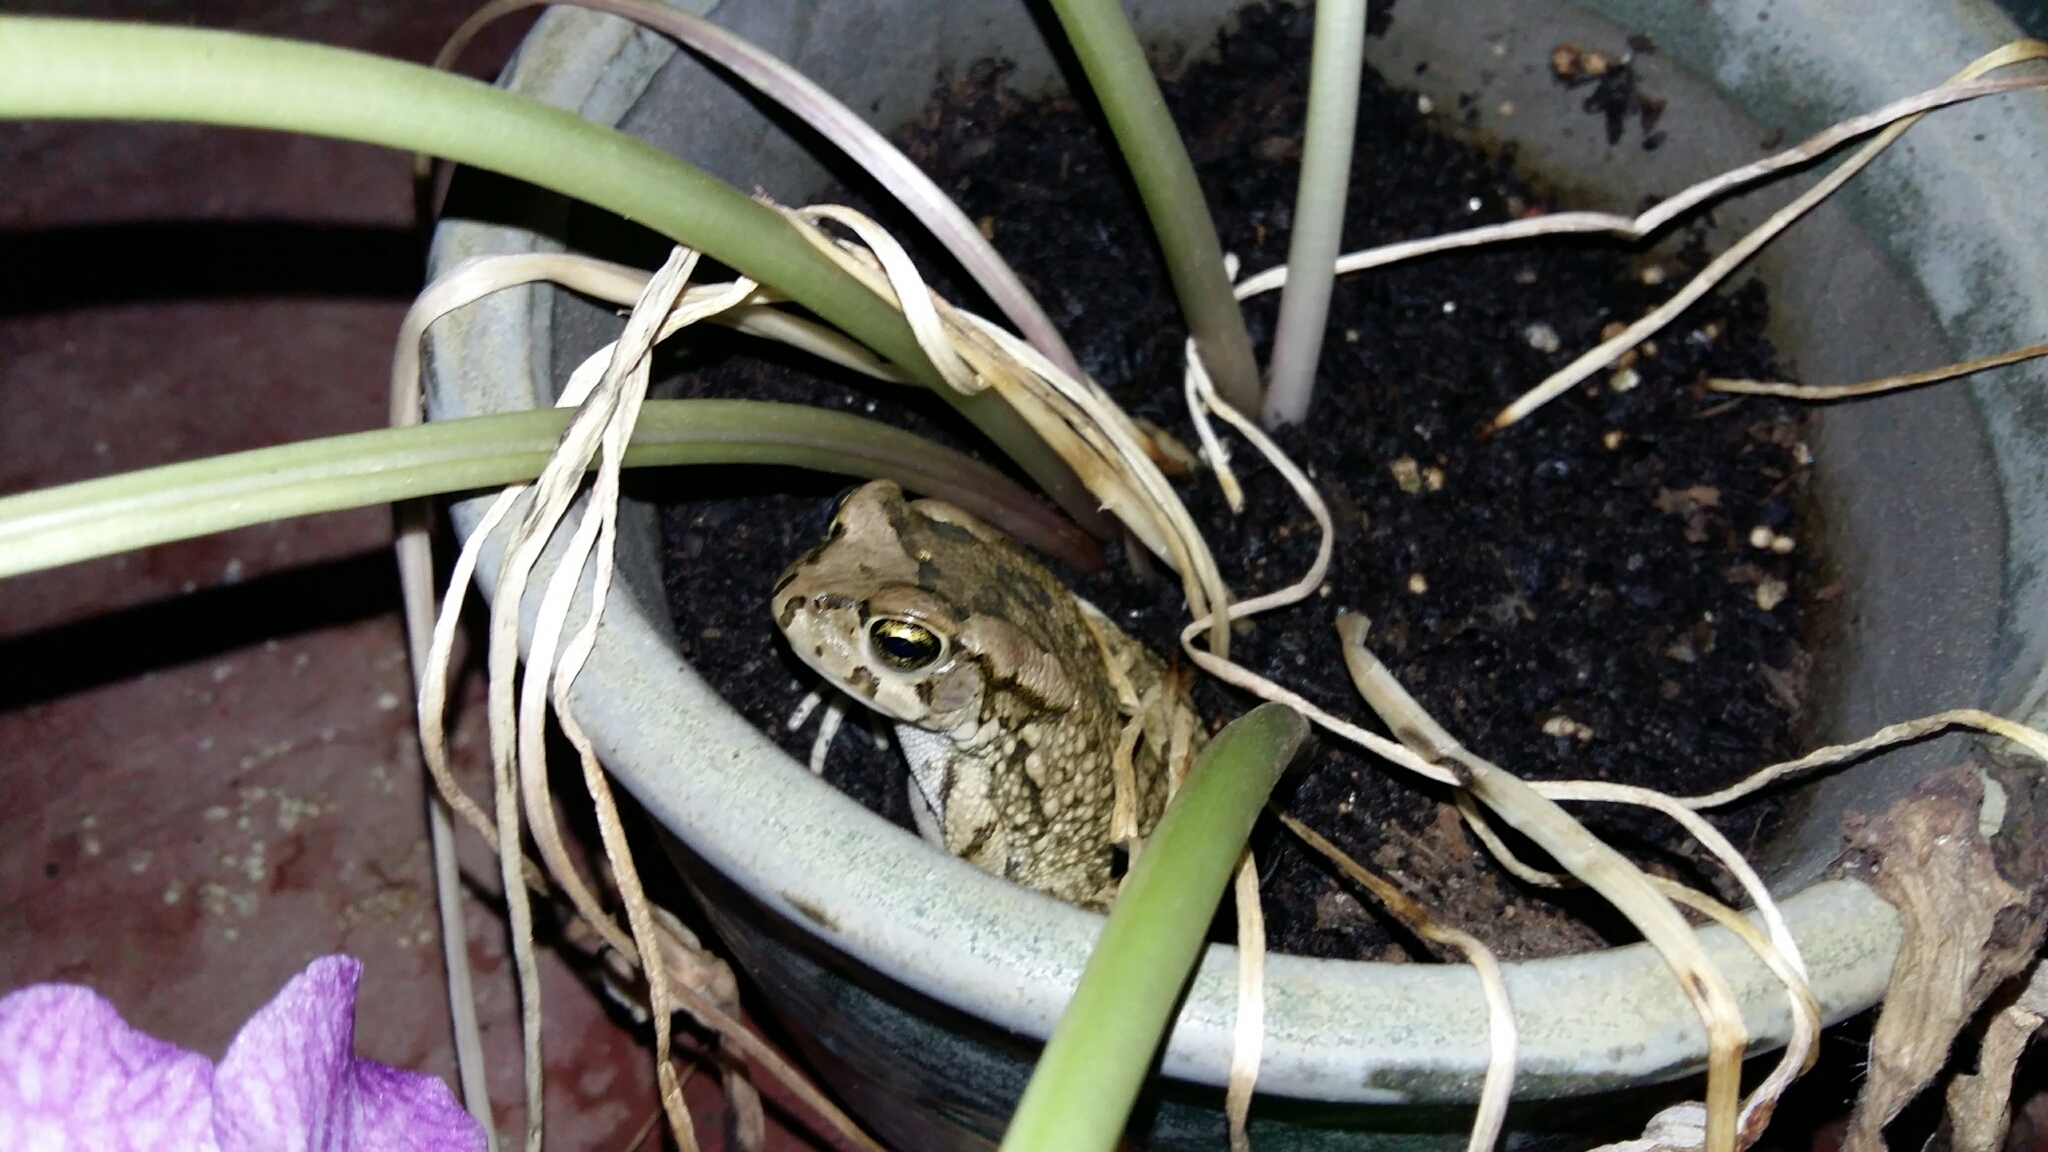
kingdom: Animalia
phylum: Chordata
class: Amphibia
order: Anura
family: Bufonidae
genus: Sclerophrys
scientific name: Sclerophrys capensis
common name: Ranger’s toad
